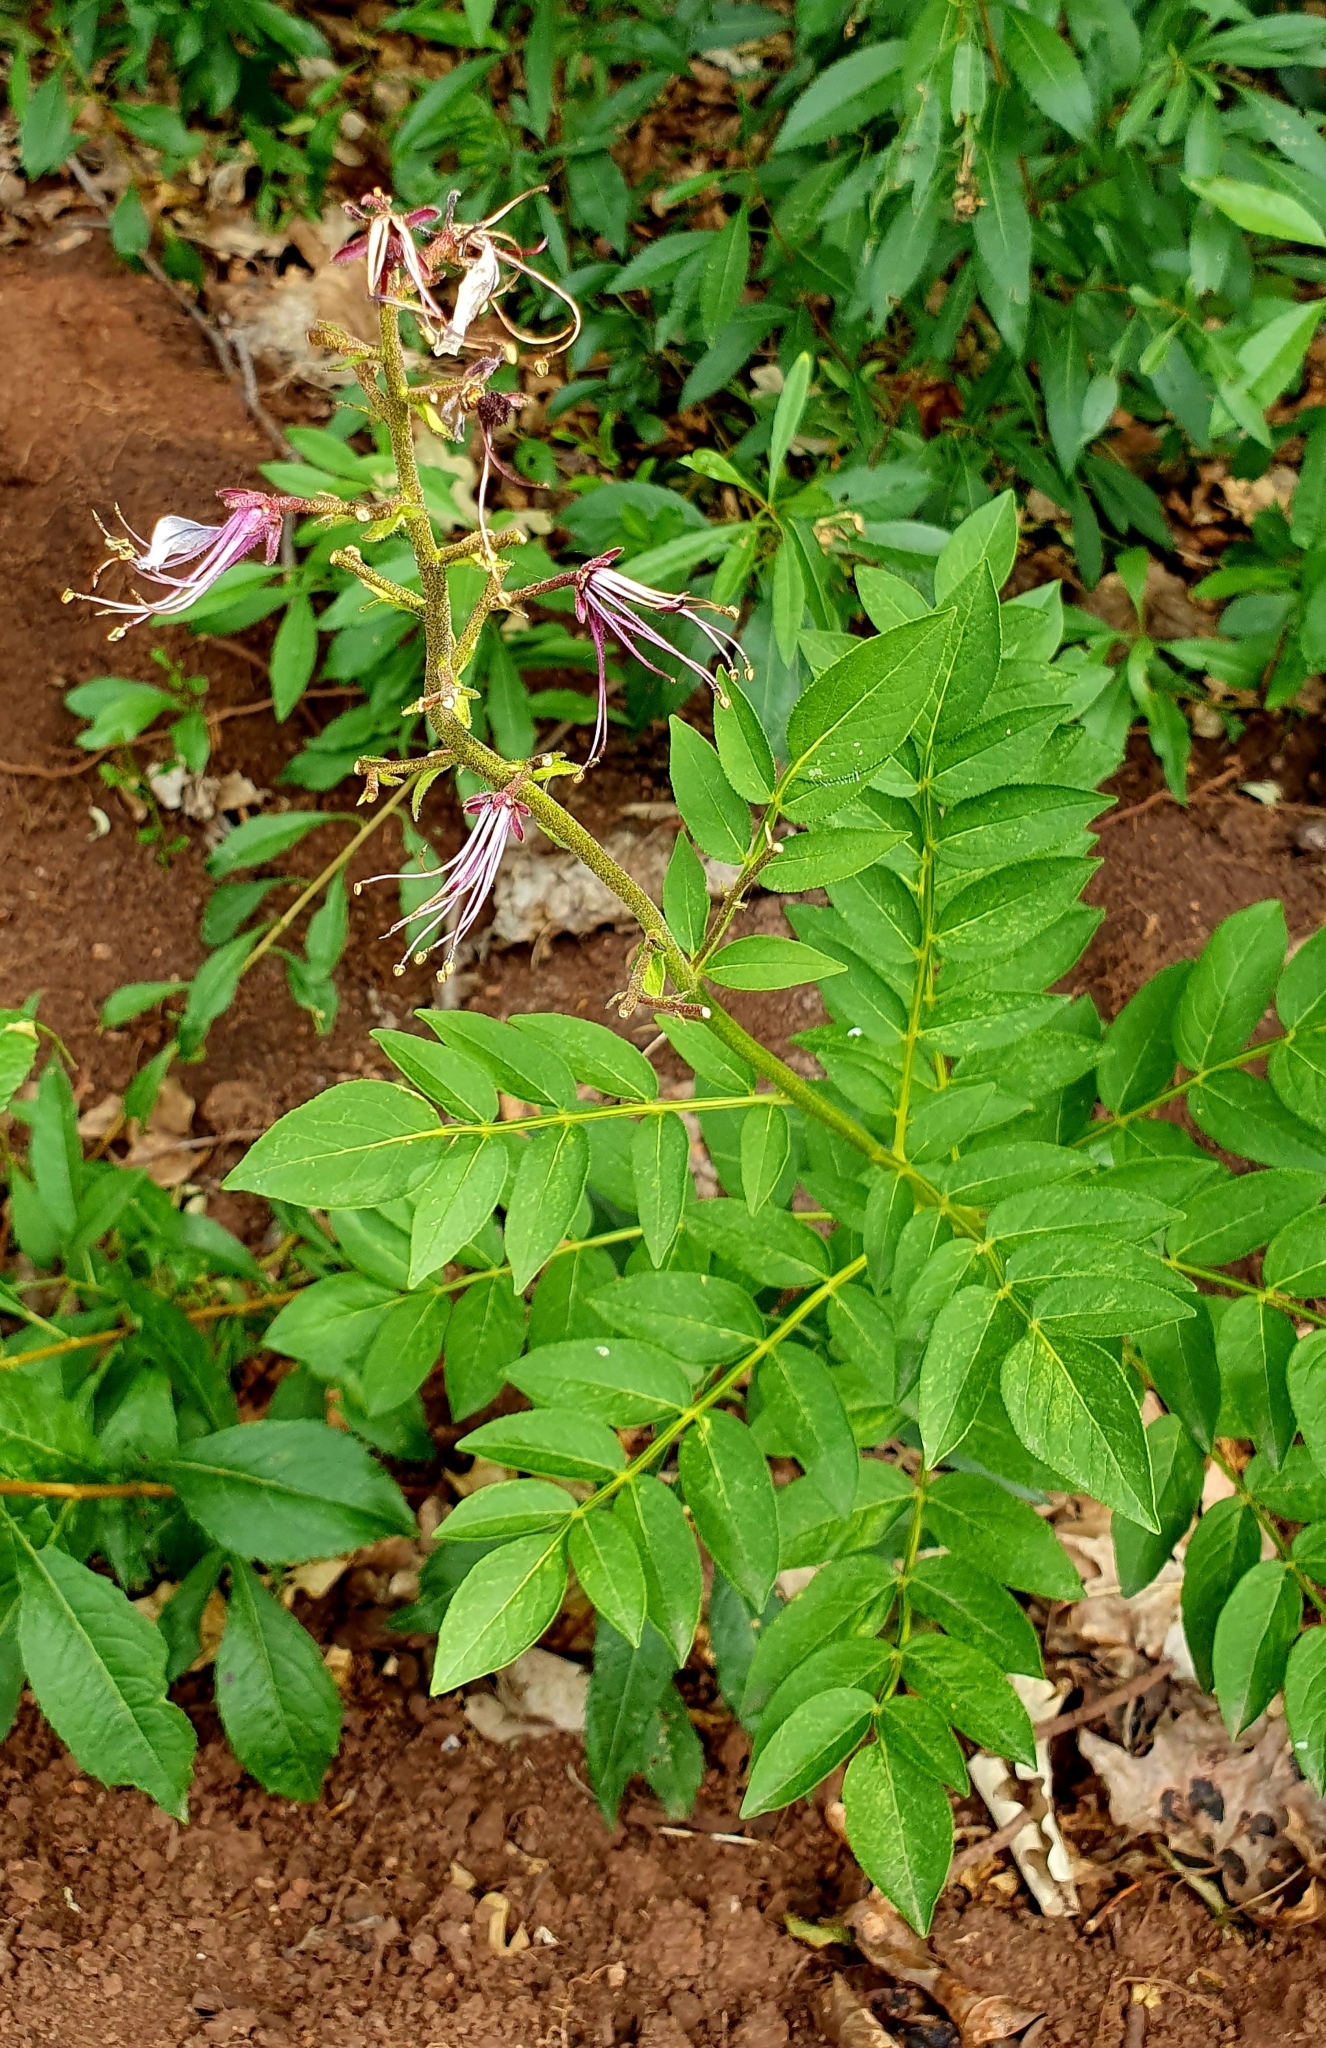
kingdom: Plantae
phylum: Tracheophyta
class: Magnoliopsida
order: Sapindales
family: Rutaceae
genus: Dictamnus
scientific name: Dictamnus albus
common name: Gasplant
